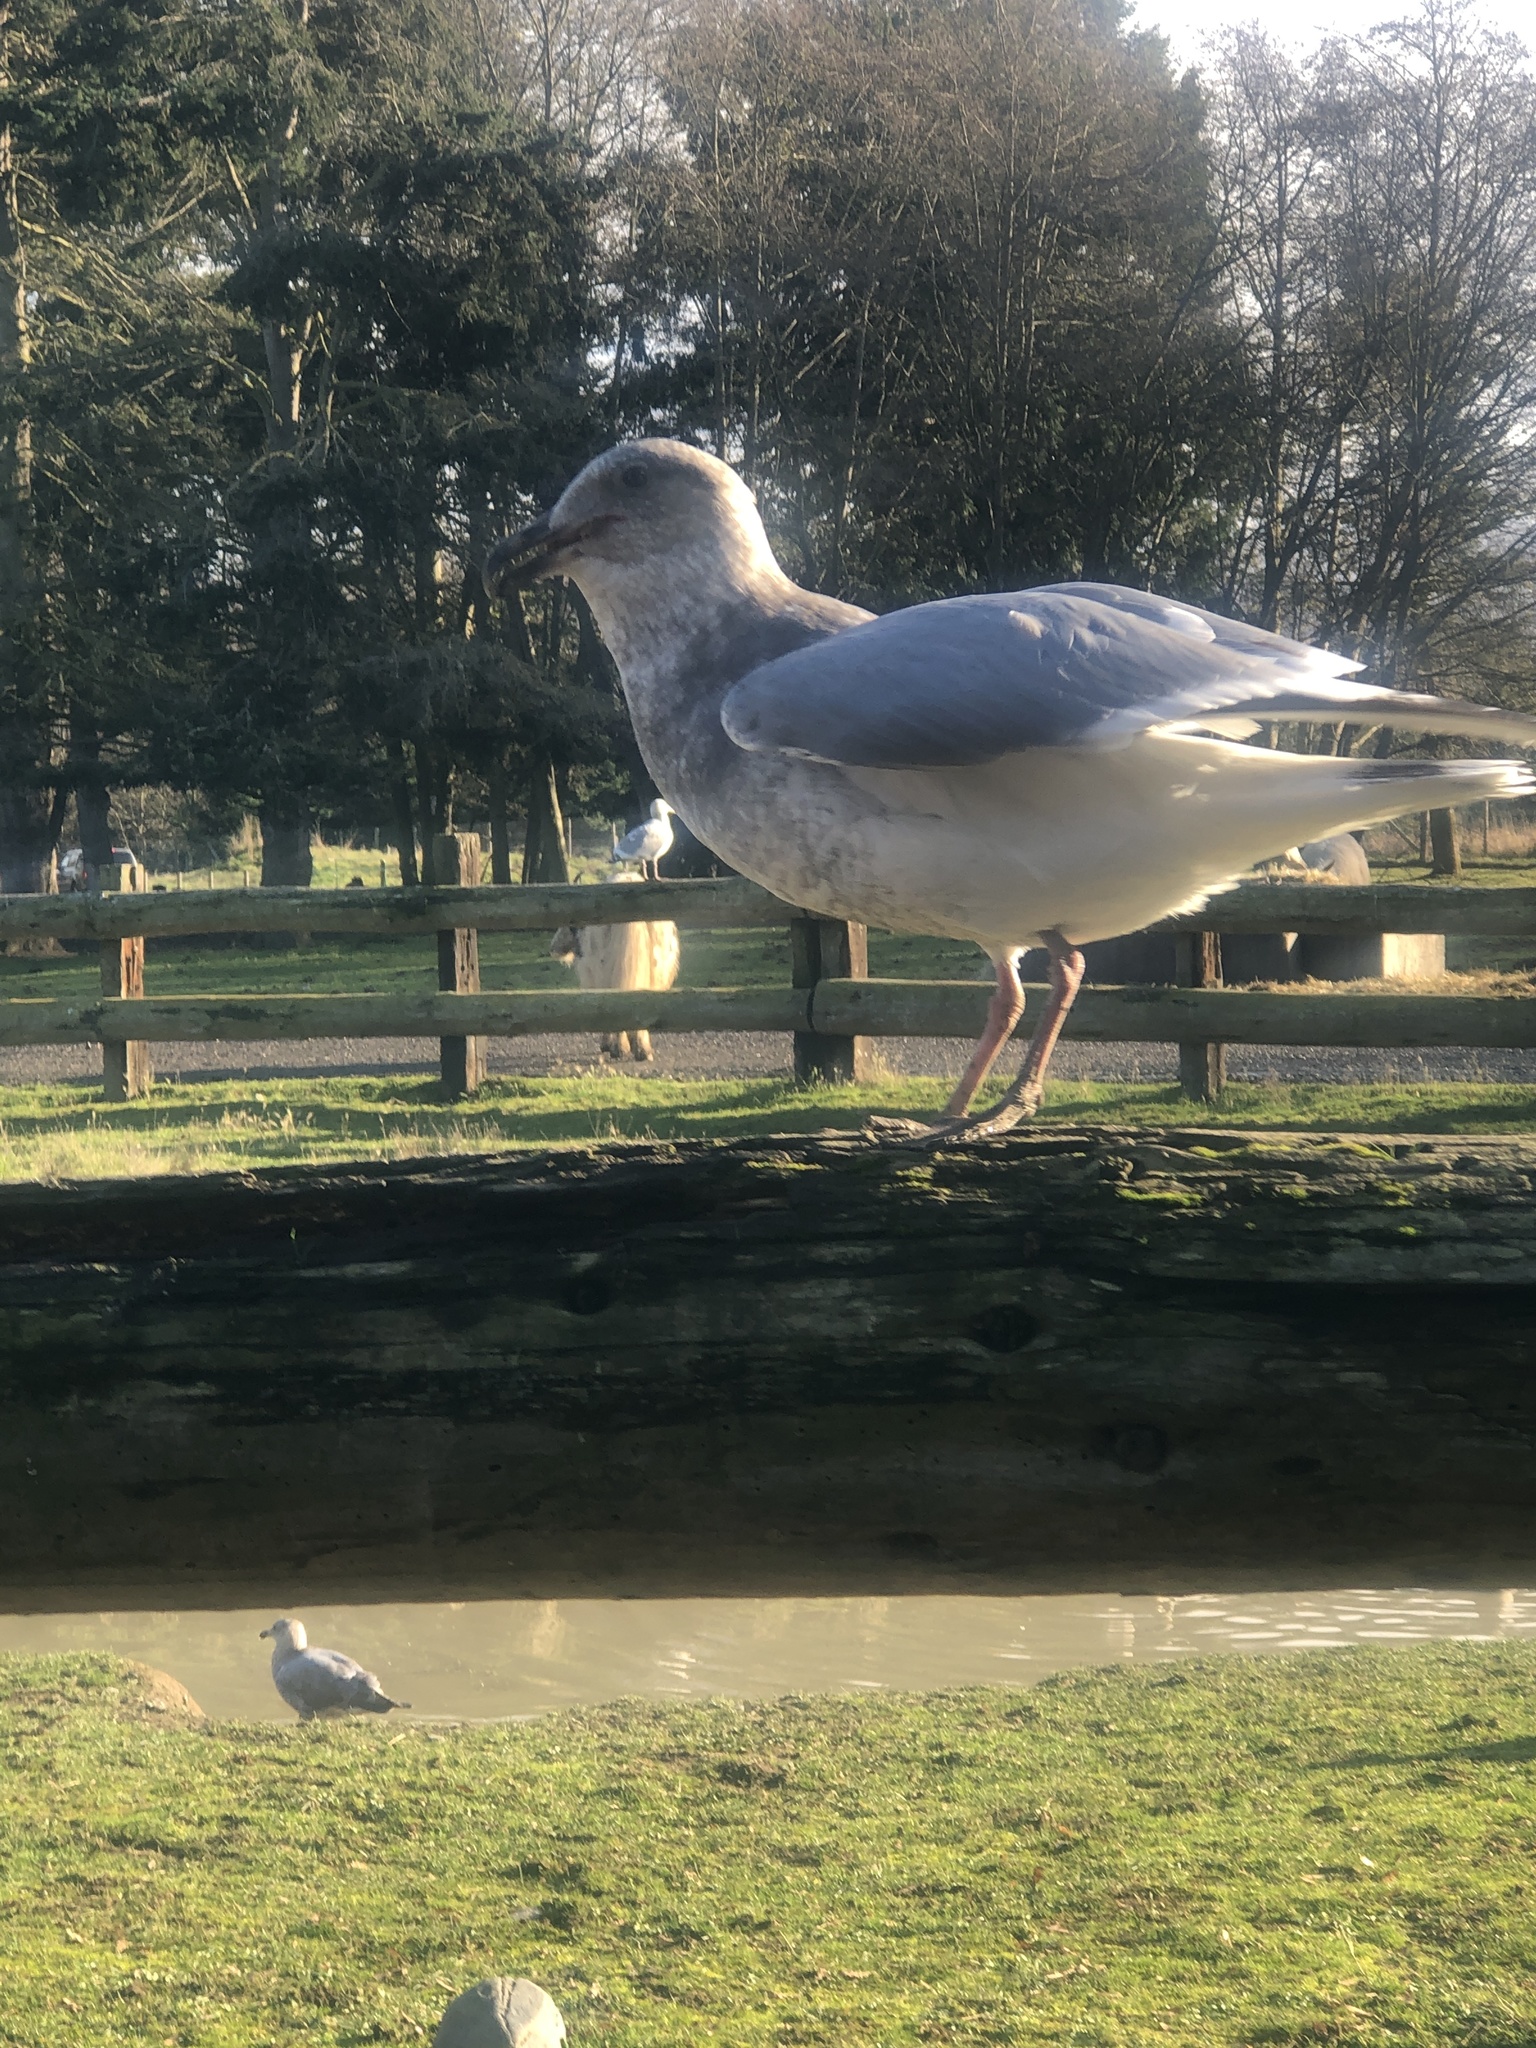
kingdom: Animalia
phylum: Chordata
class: Aves
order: Charadriiformes
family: Laridae
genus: Larus
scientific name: Larus
